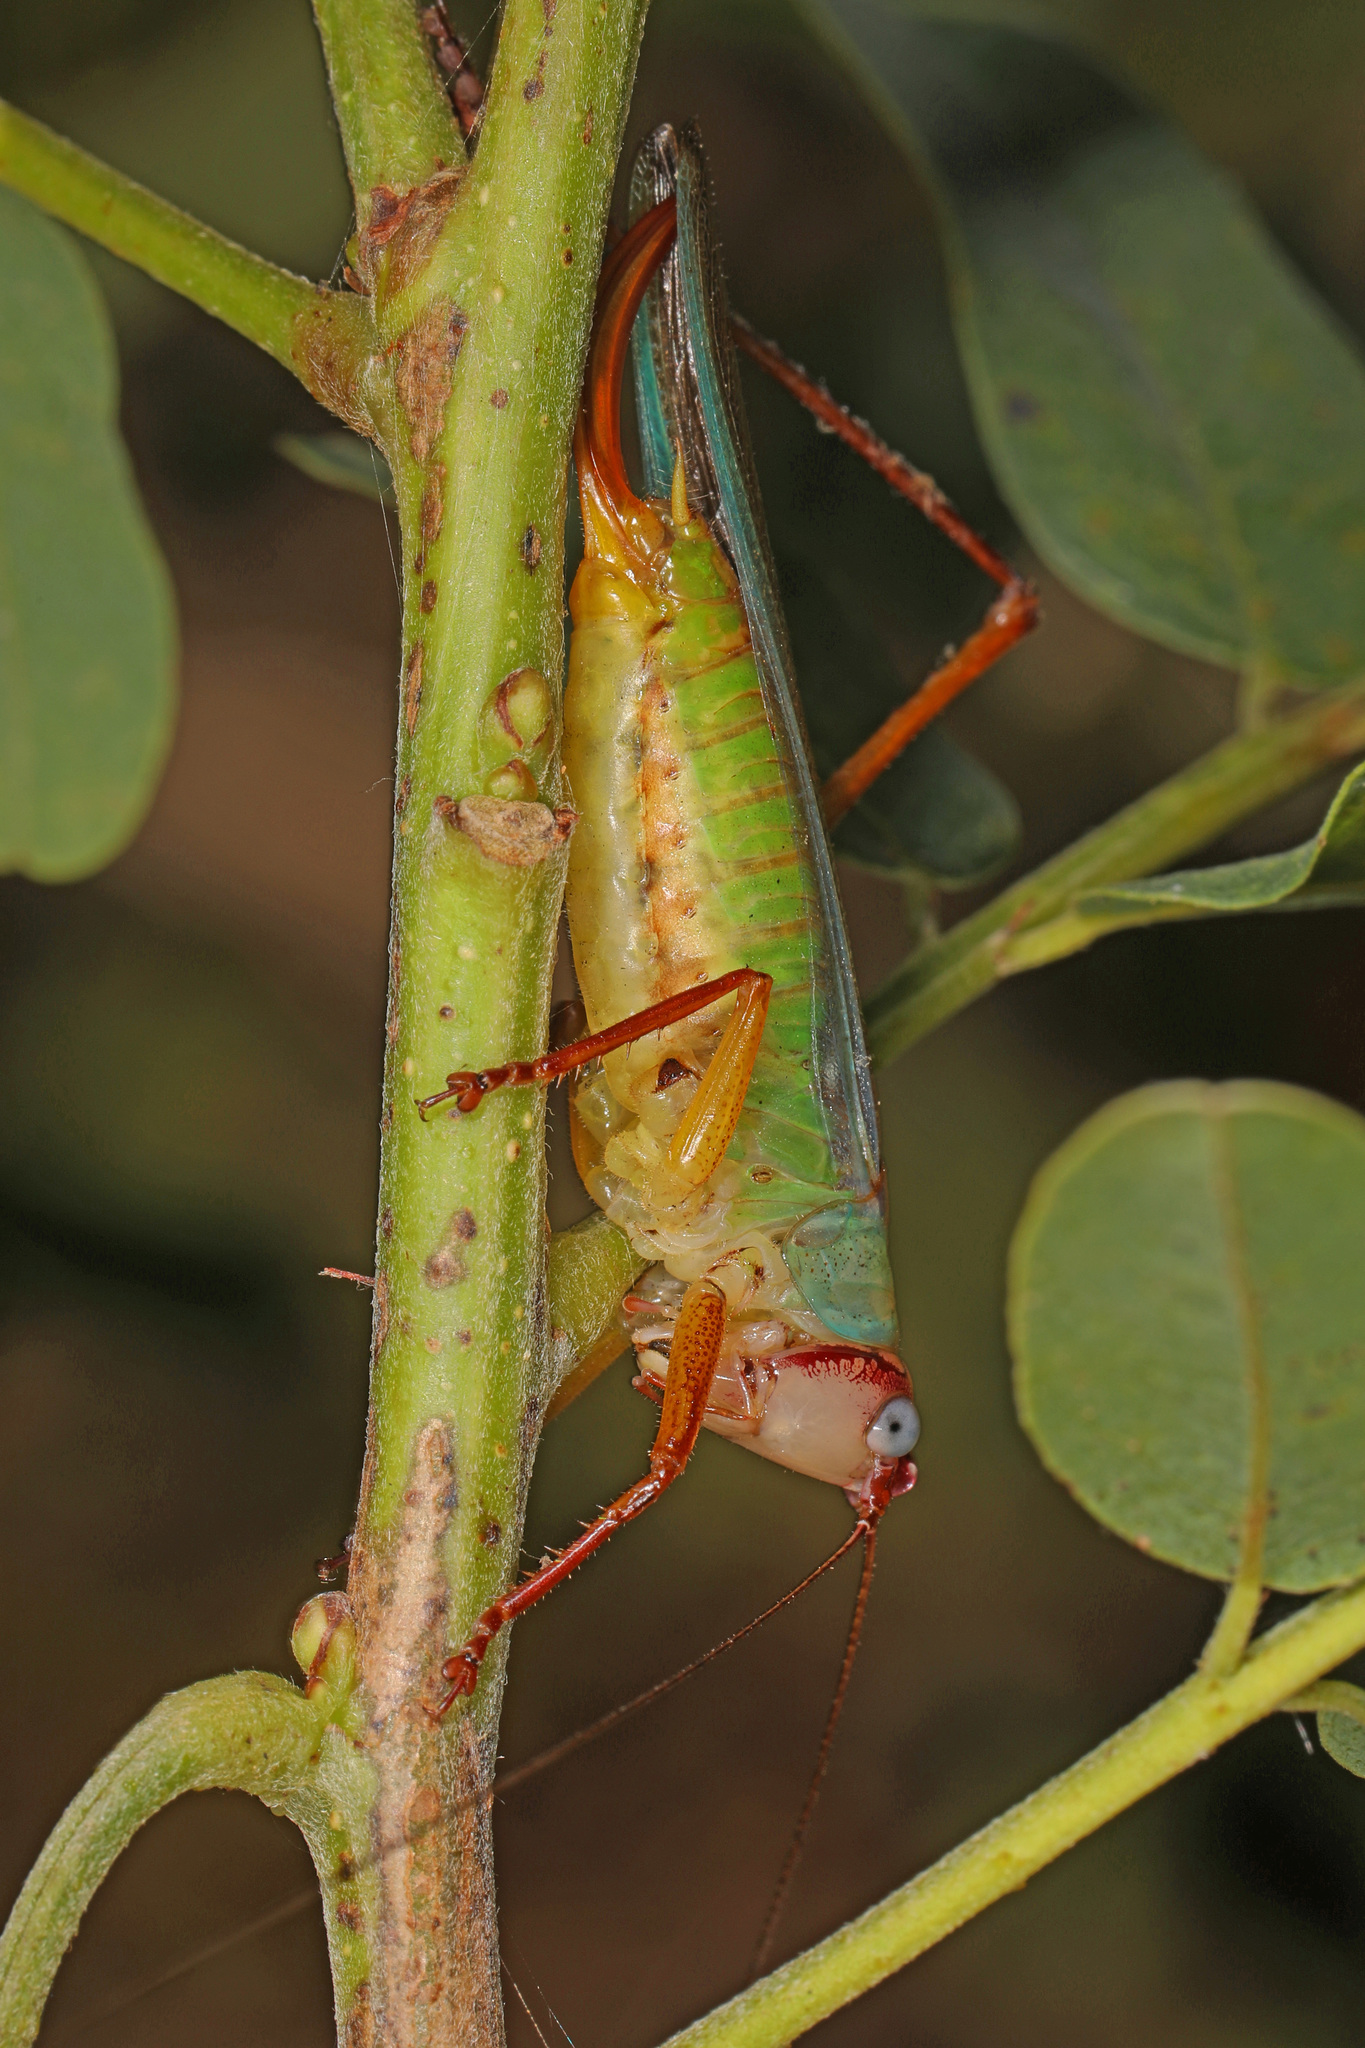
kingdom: Animalia
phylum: Arthropoda
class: Insecta
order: Orthoptera
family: Tettigoniidae
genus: Orchelimum
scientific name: Orchelimum pulchellum
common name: Handsome meadow katydid
